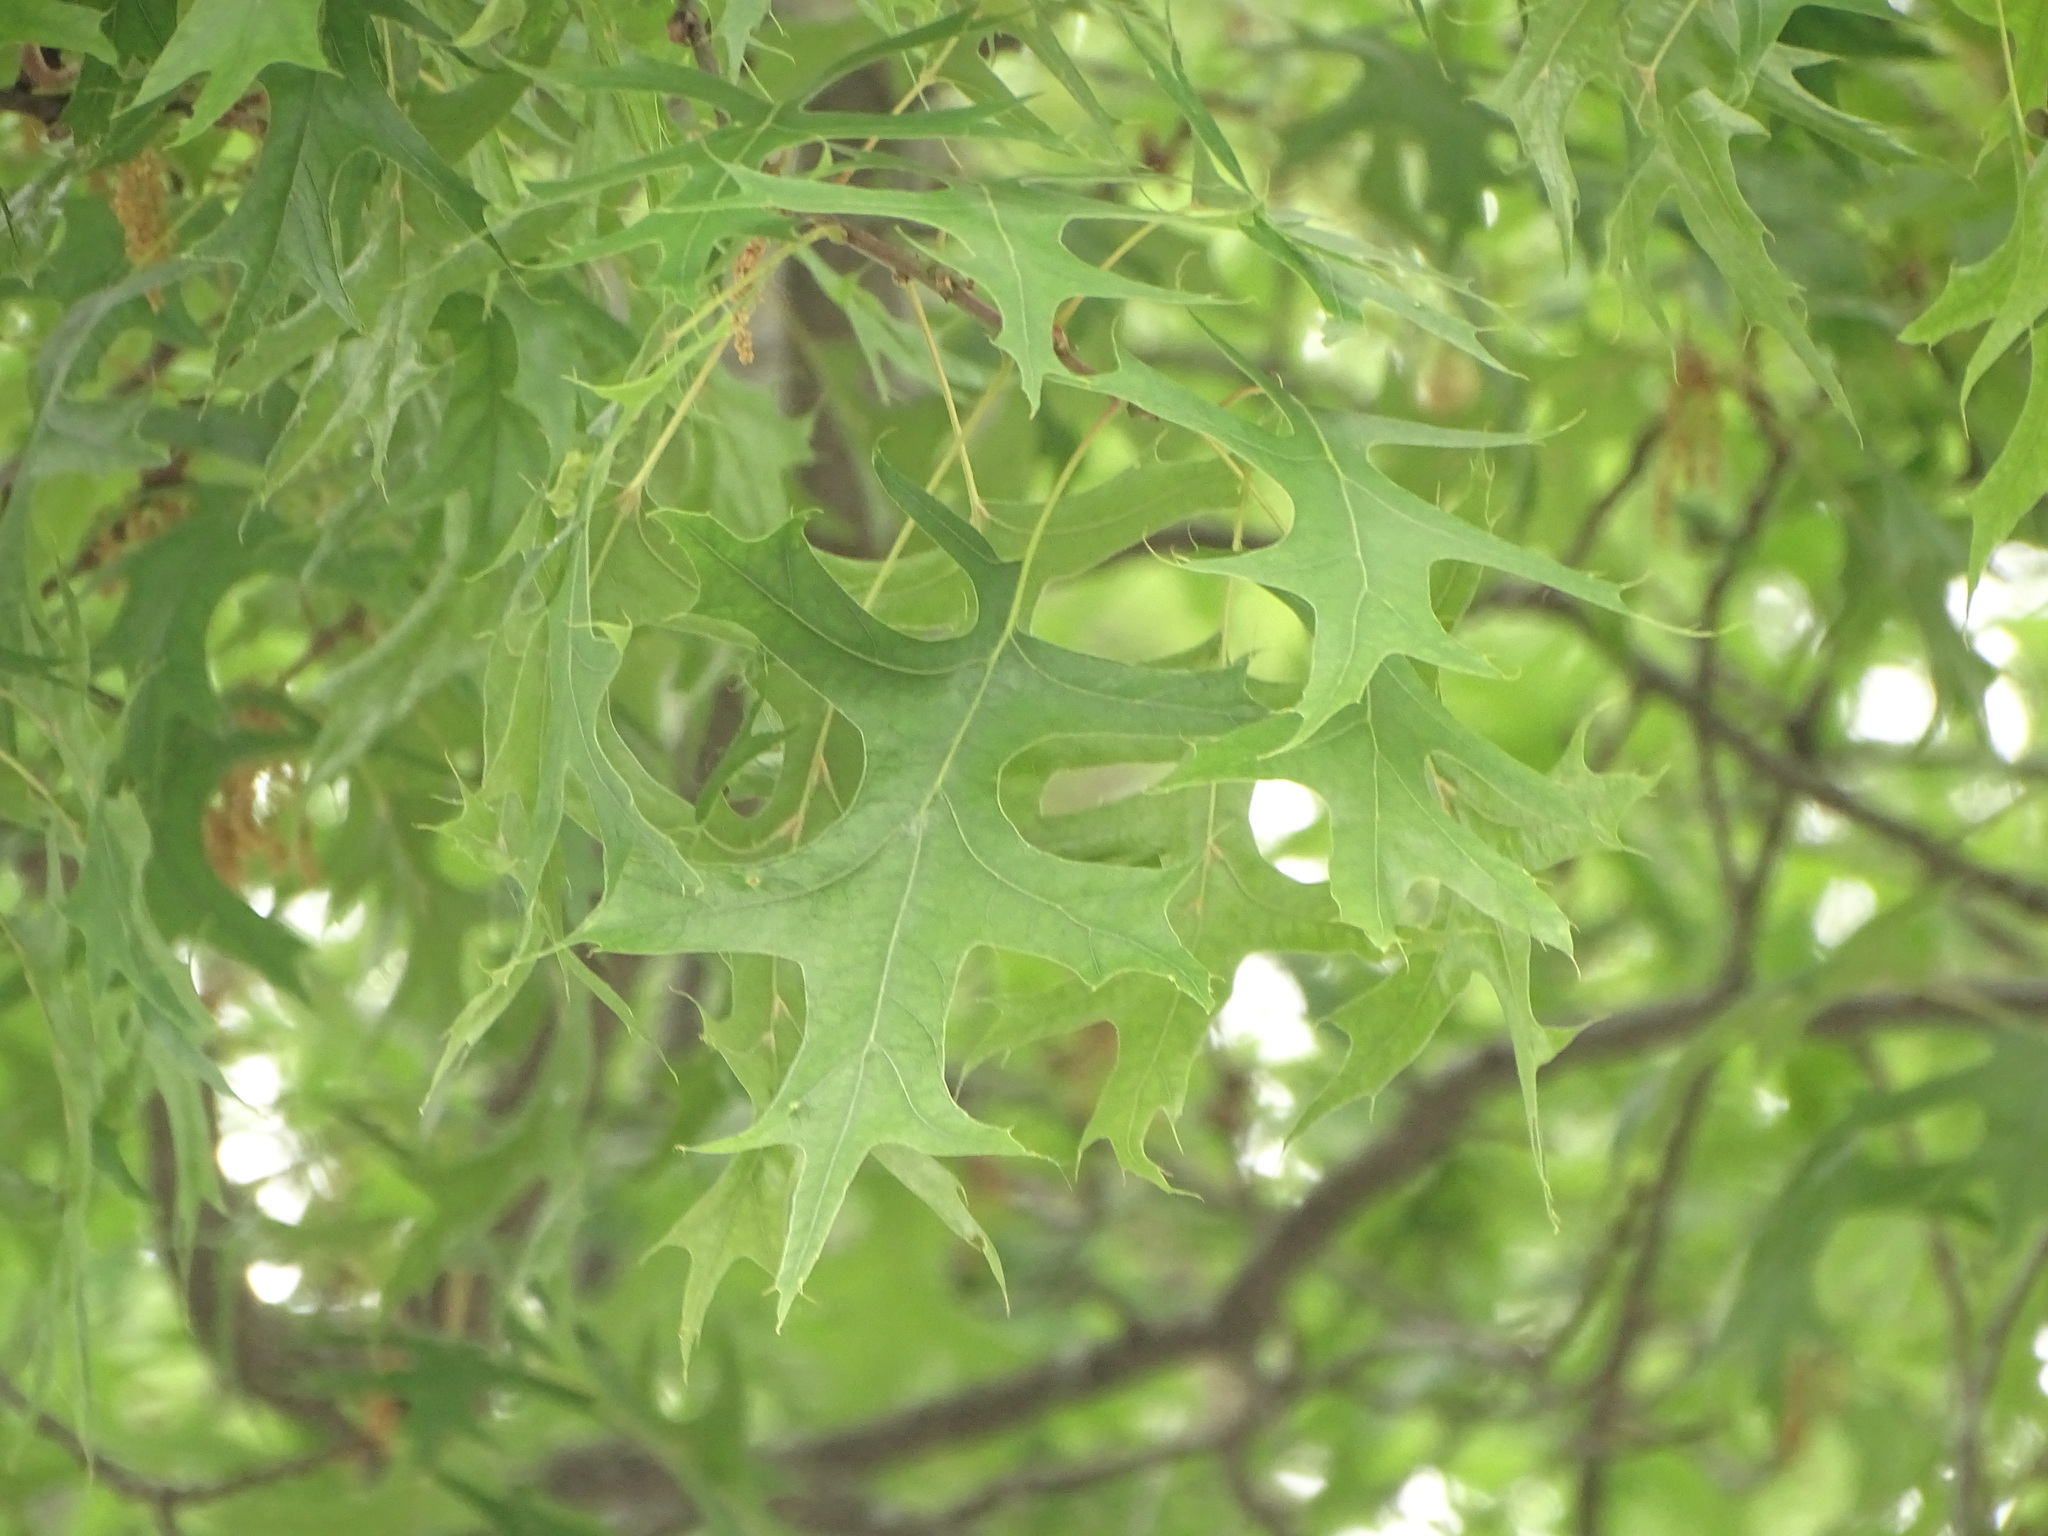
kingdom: Plantae
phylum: Tracheophyta
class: Magnoliopsida
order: Fagales
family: Fagaceae
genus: Quercus
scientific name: Quercus palustris
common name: Pin oak
